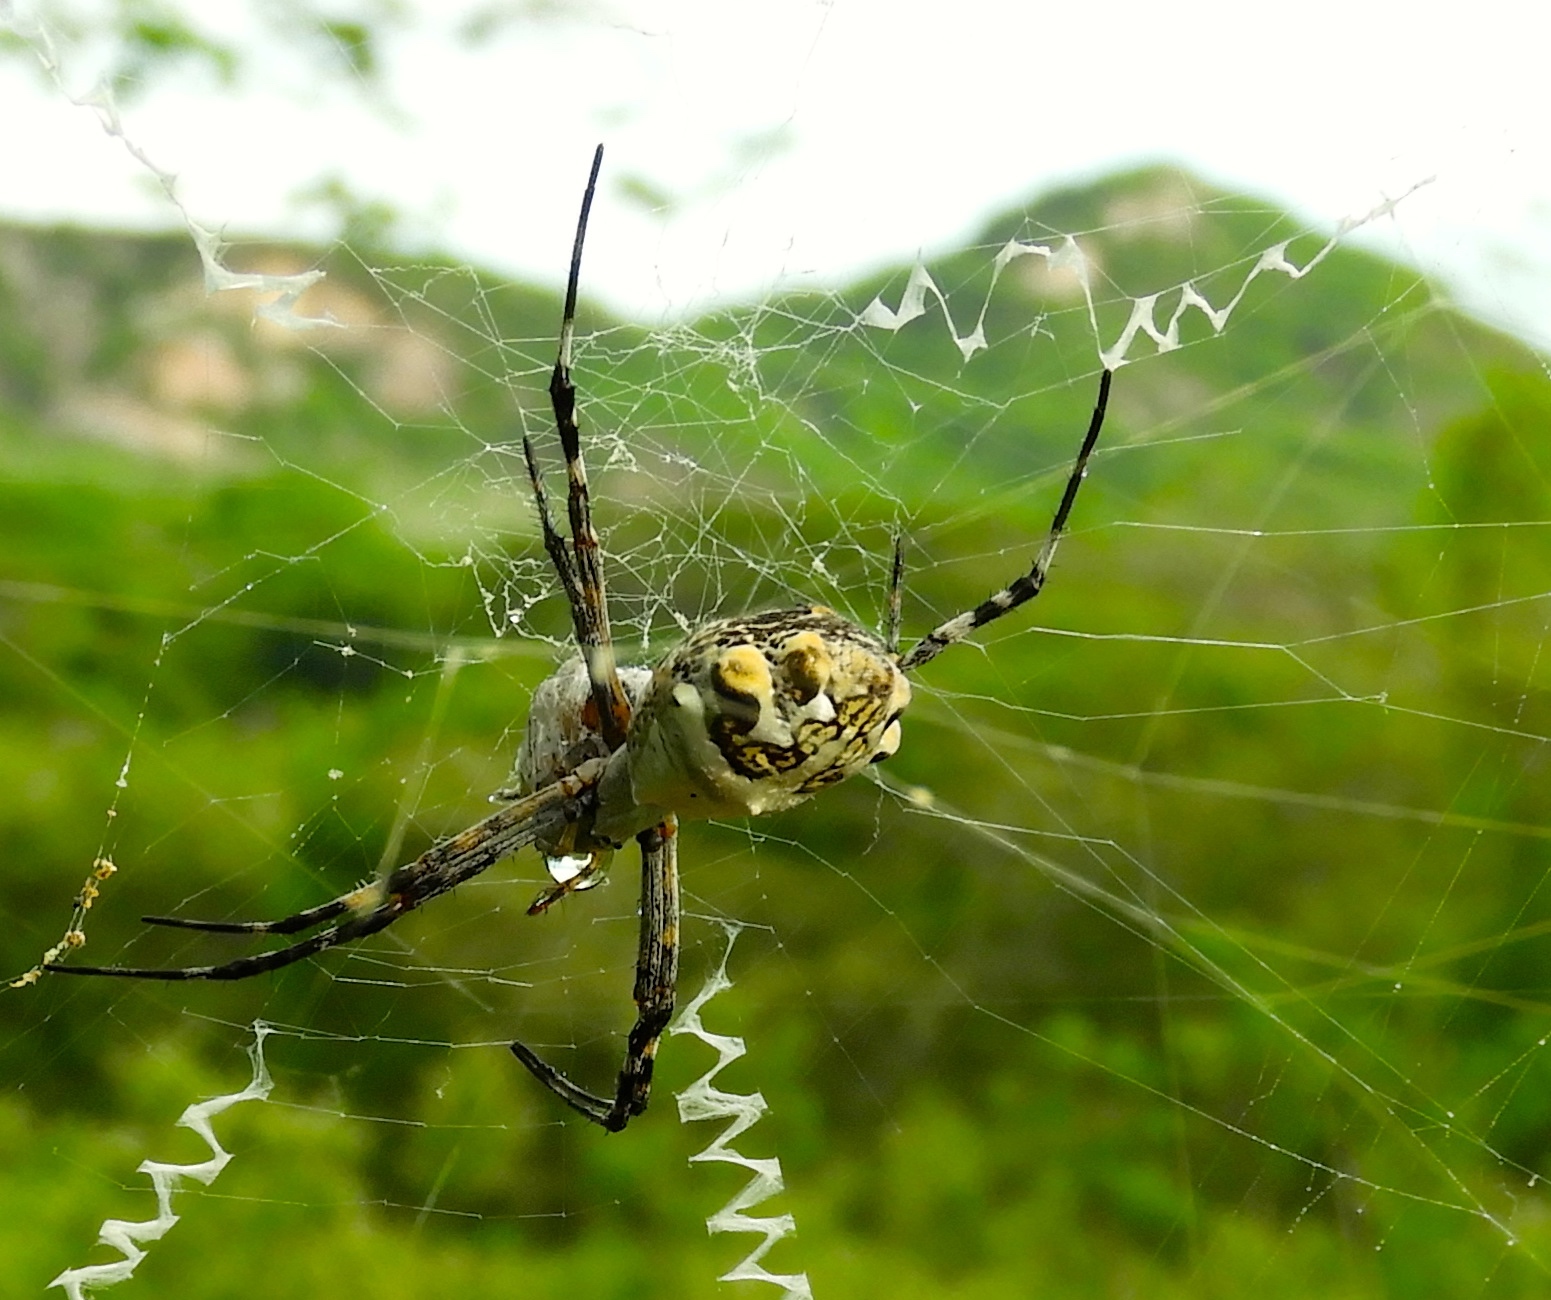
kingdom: Animalia
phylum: Arthropoda
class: Arachnida
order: Araneae
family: Araneidae
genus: Argiope
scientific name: Argiope argentata
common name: Orb weavers
